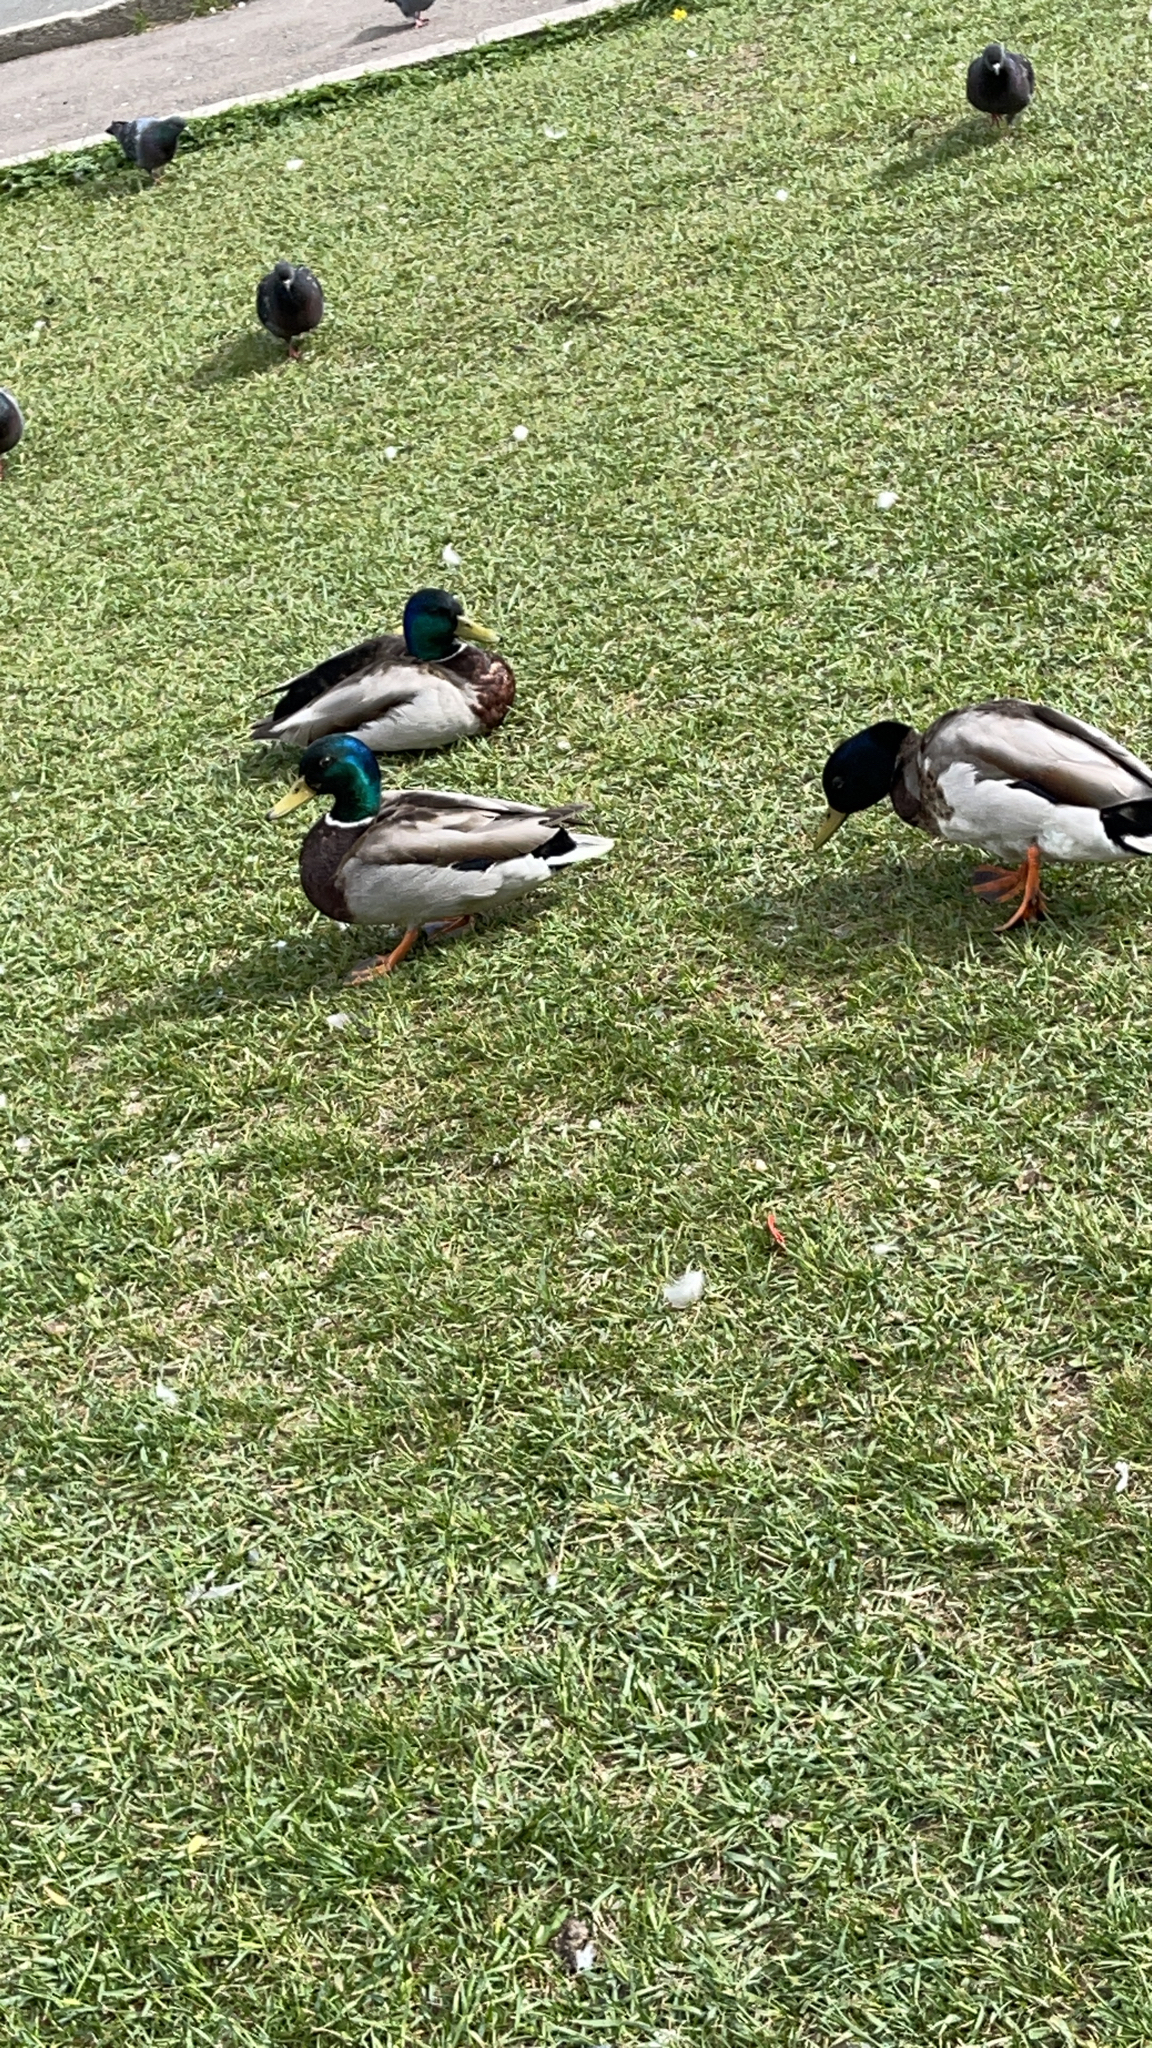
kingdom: Animalia
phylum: Chordata
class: Aves
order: Anseriformes
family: Anatidae
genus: Anas
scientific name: Anas platyrhynchos
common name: Mallard
